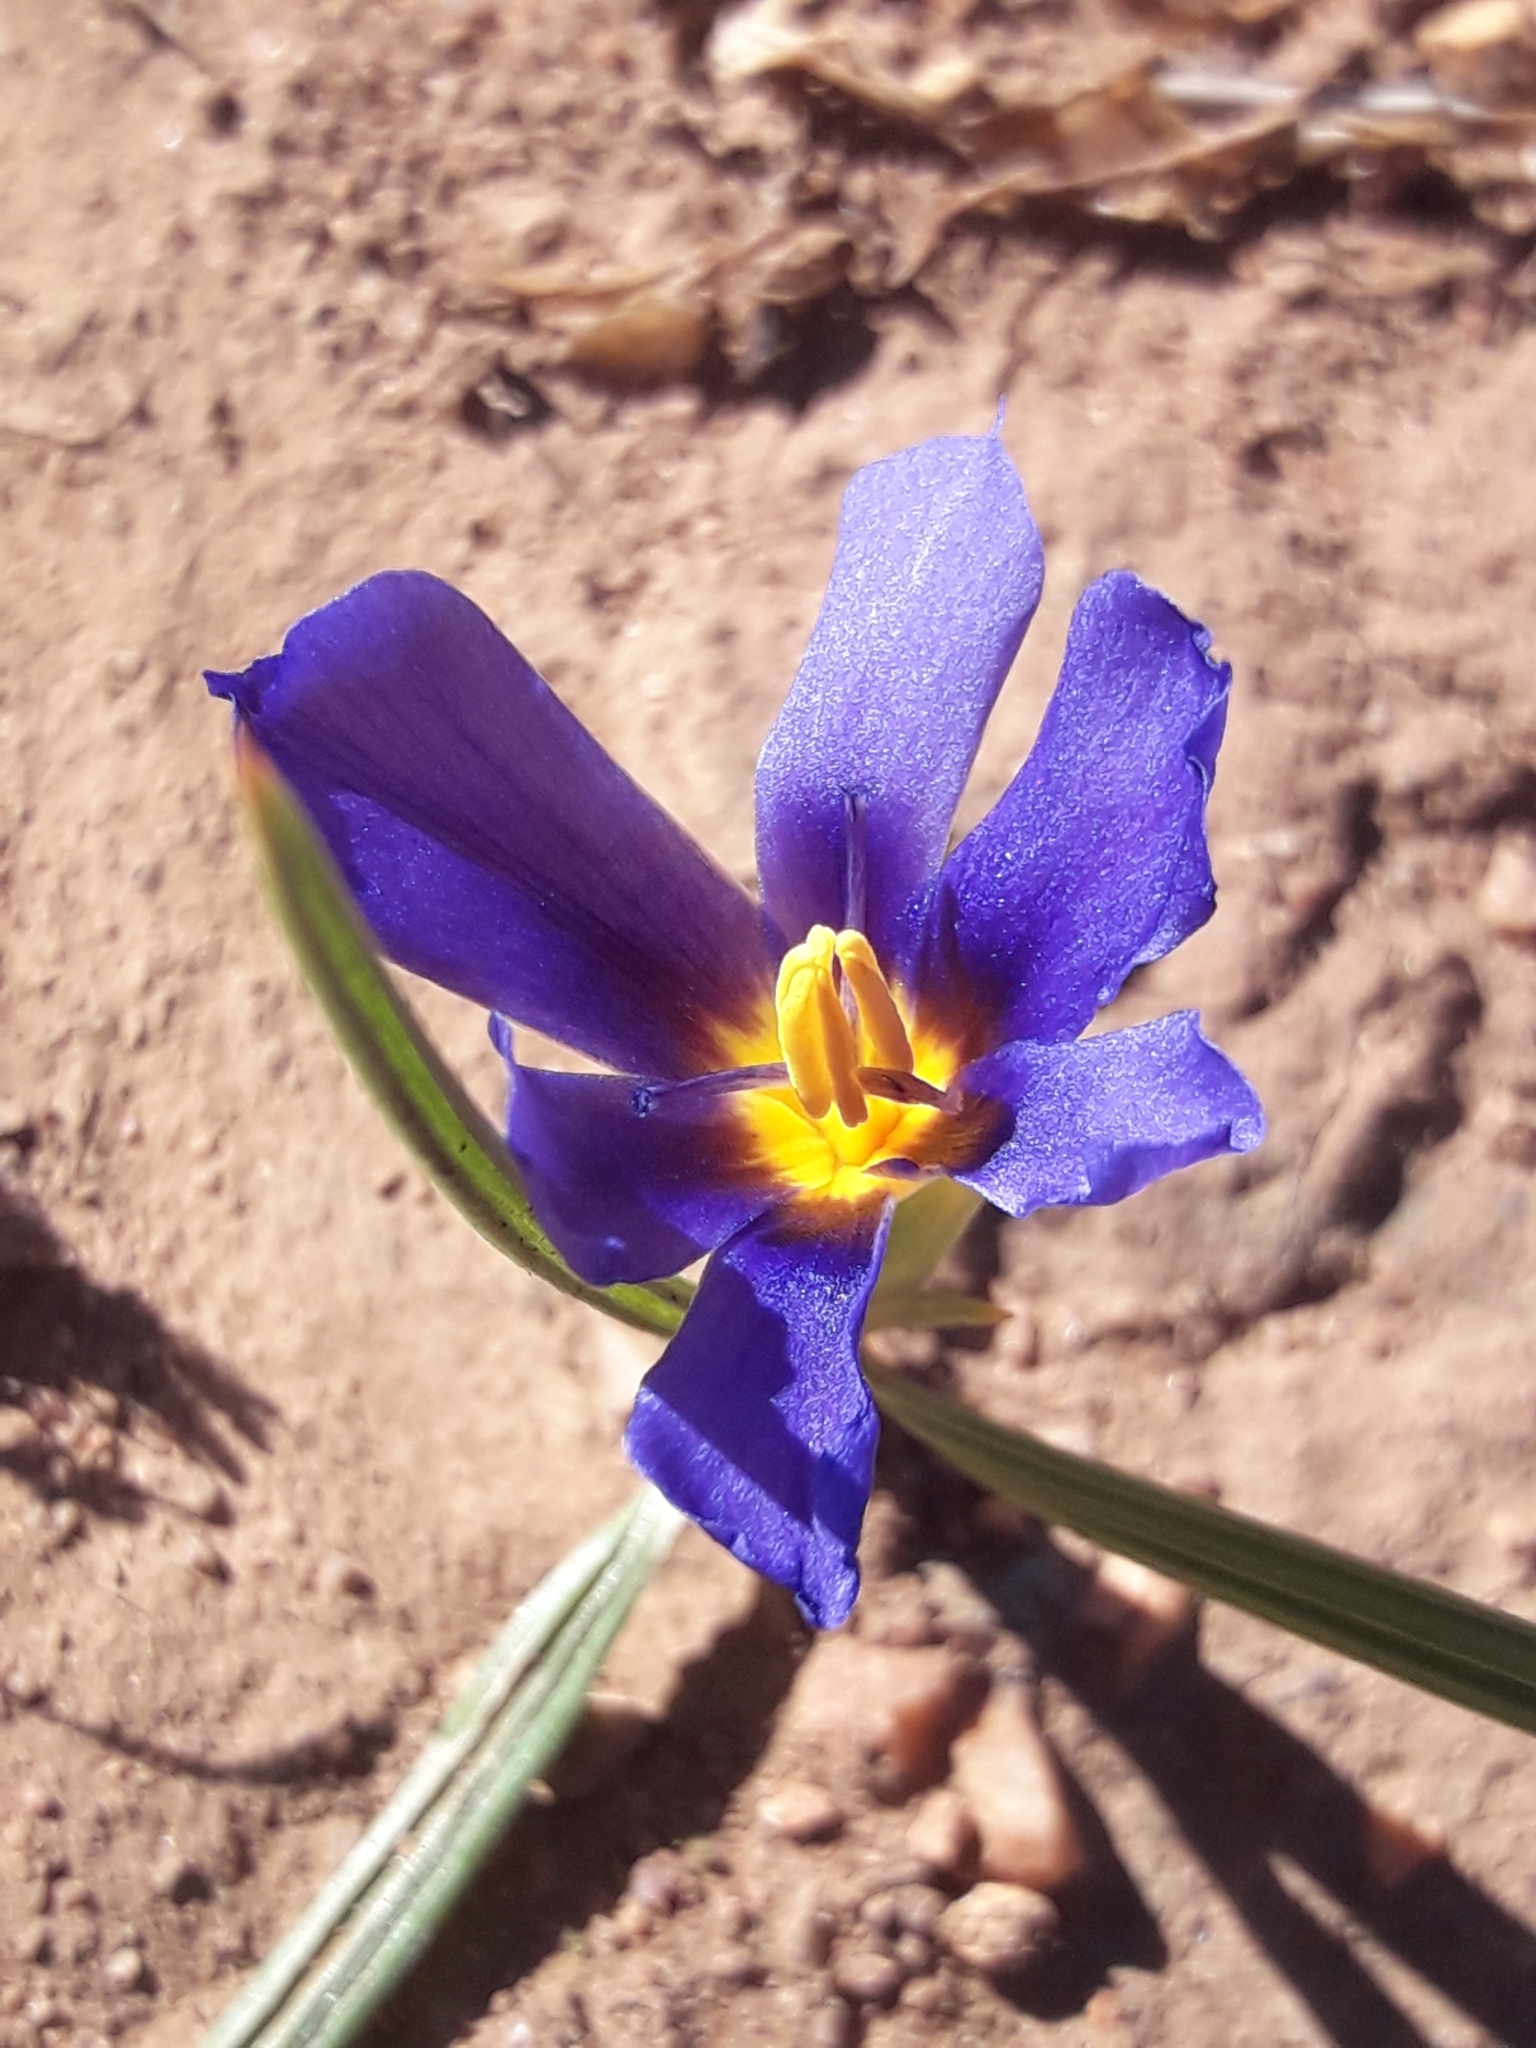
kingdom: Plantae
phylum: Tracheophyta
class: Liliopsida
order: Asparagales
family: Iridaceae
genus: Calydorea
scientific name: Calydorea xiphioides
